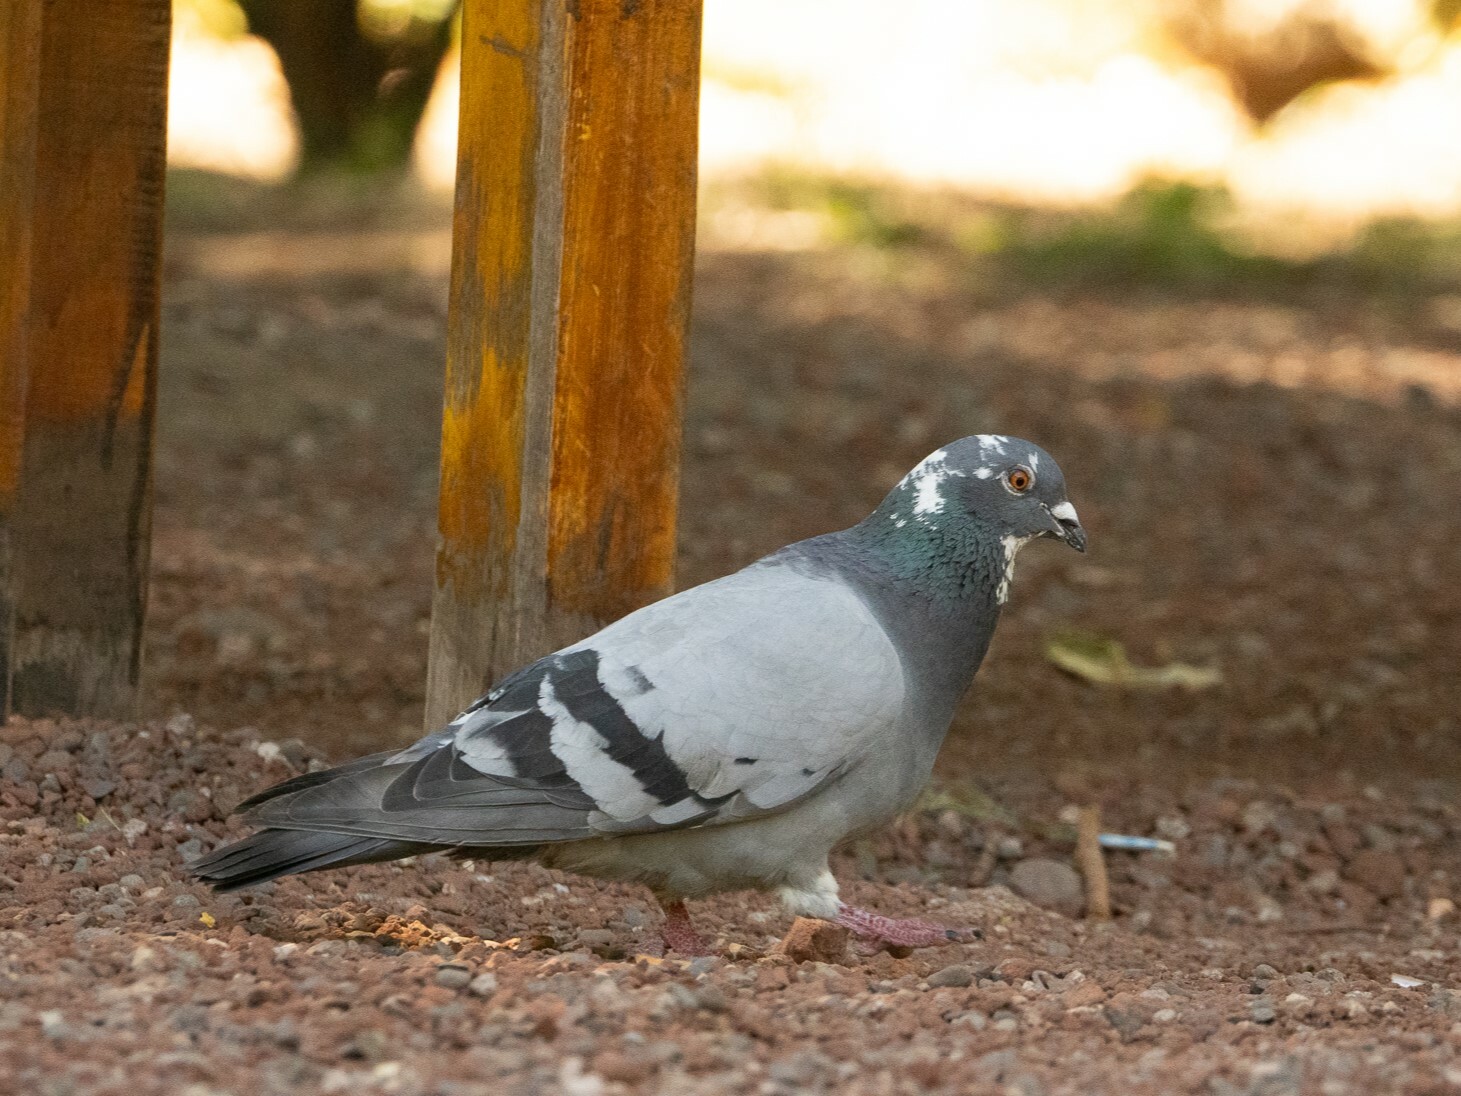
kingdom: Animalia
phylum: Chordata
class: Aves
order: Columbiformes
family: Columbidae
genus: Columba
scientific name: Columba livia
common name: Rock pigeon
